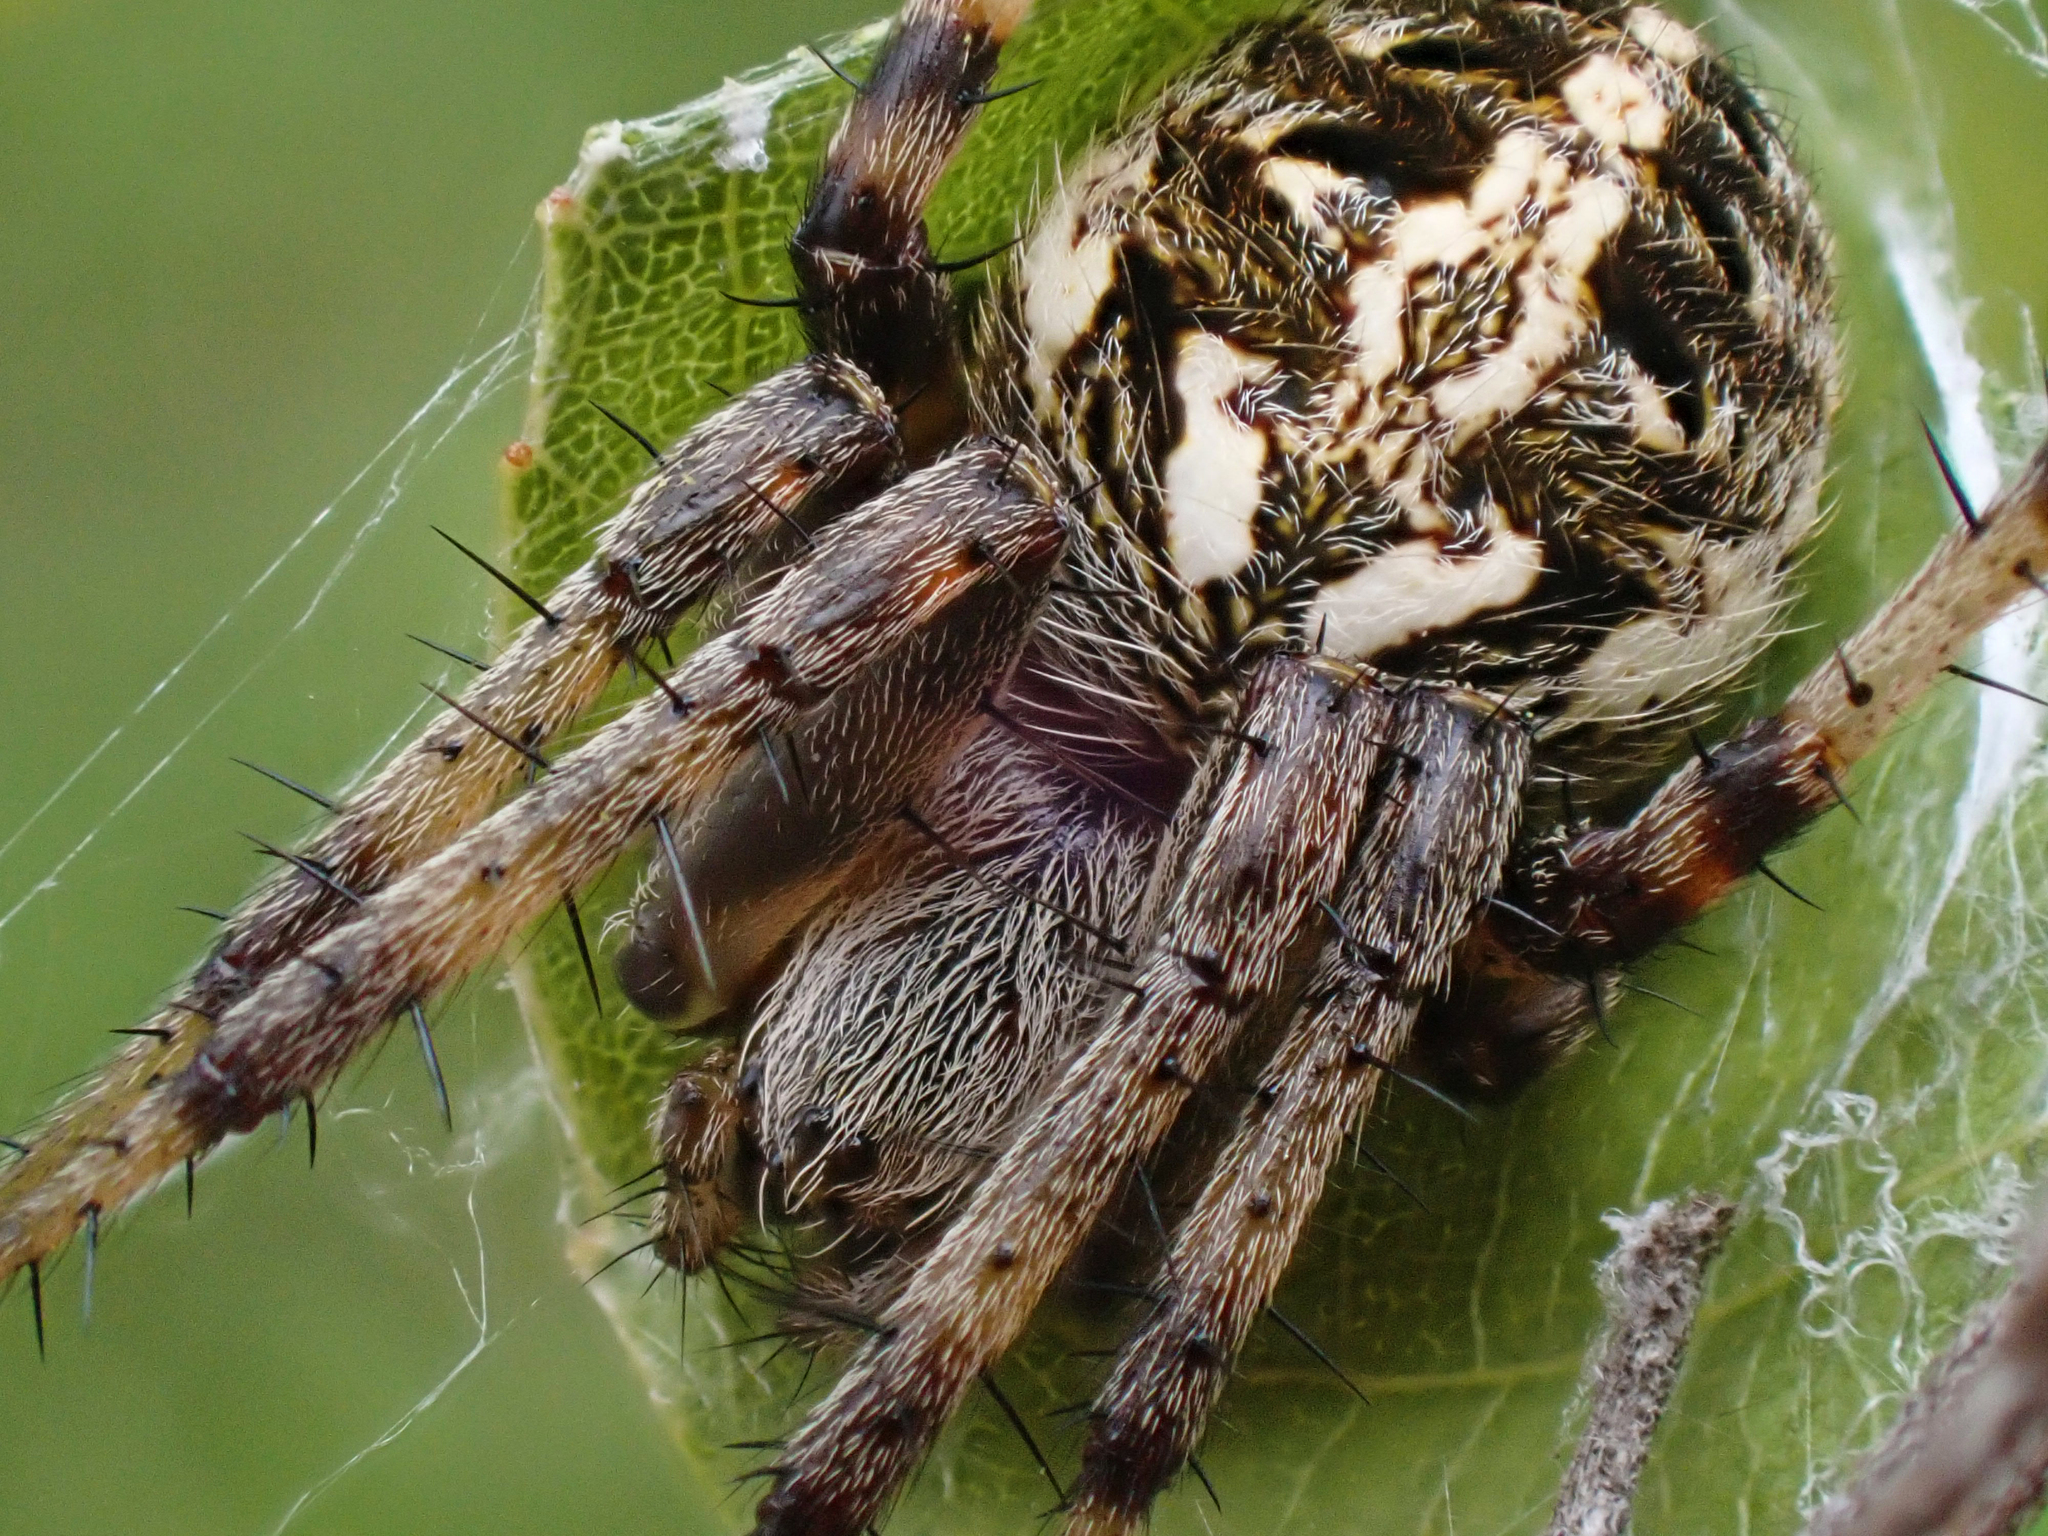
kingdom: Animalia
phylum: Arthropoda
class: Arachnida
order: Araneae
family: Araneidae
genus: Neoscona
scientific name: Neoscona arabesca
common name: Orb weavers
